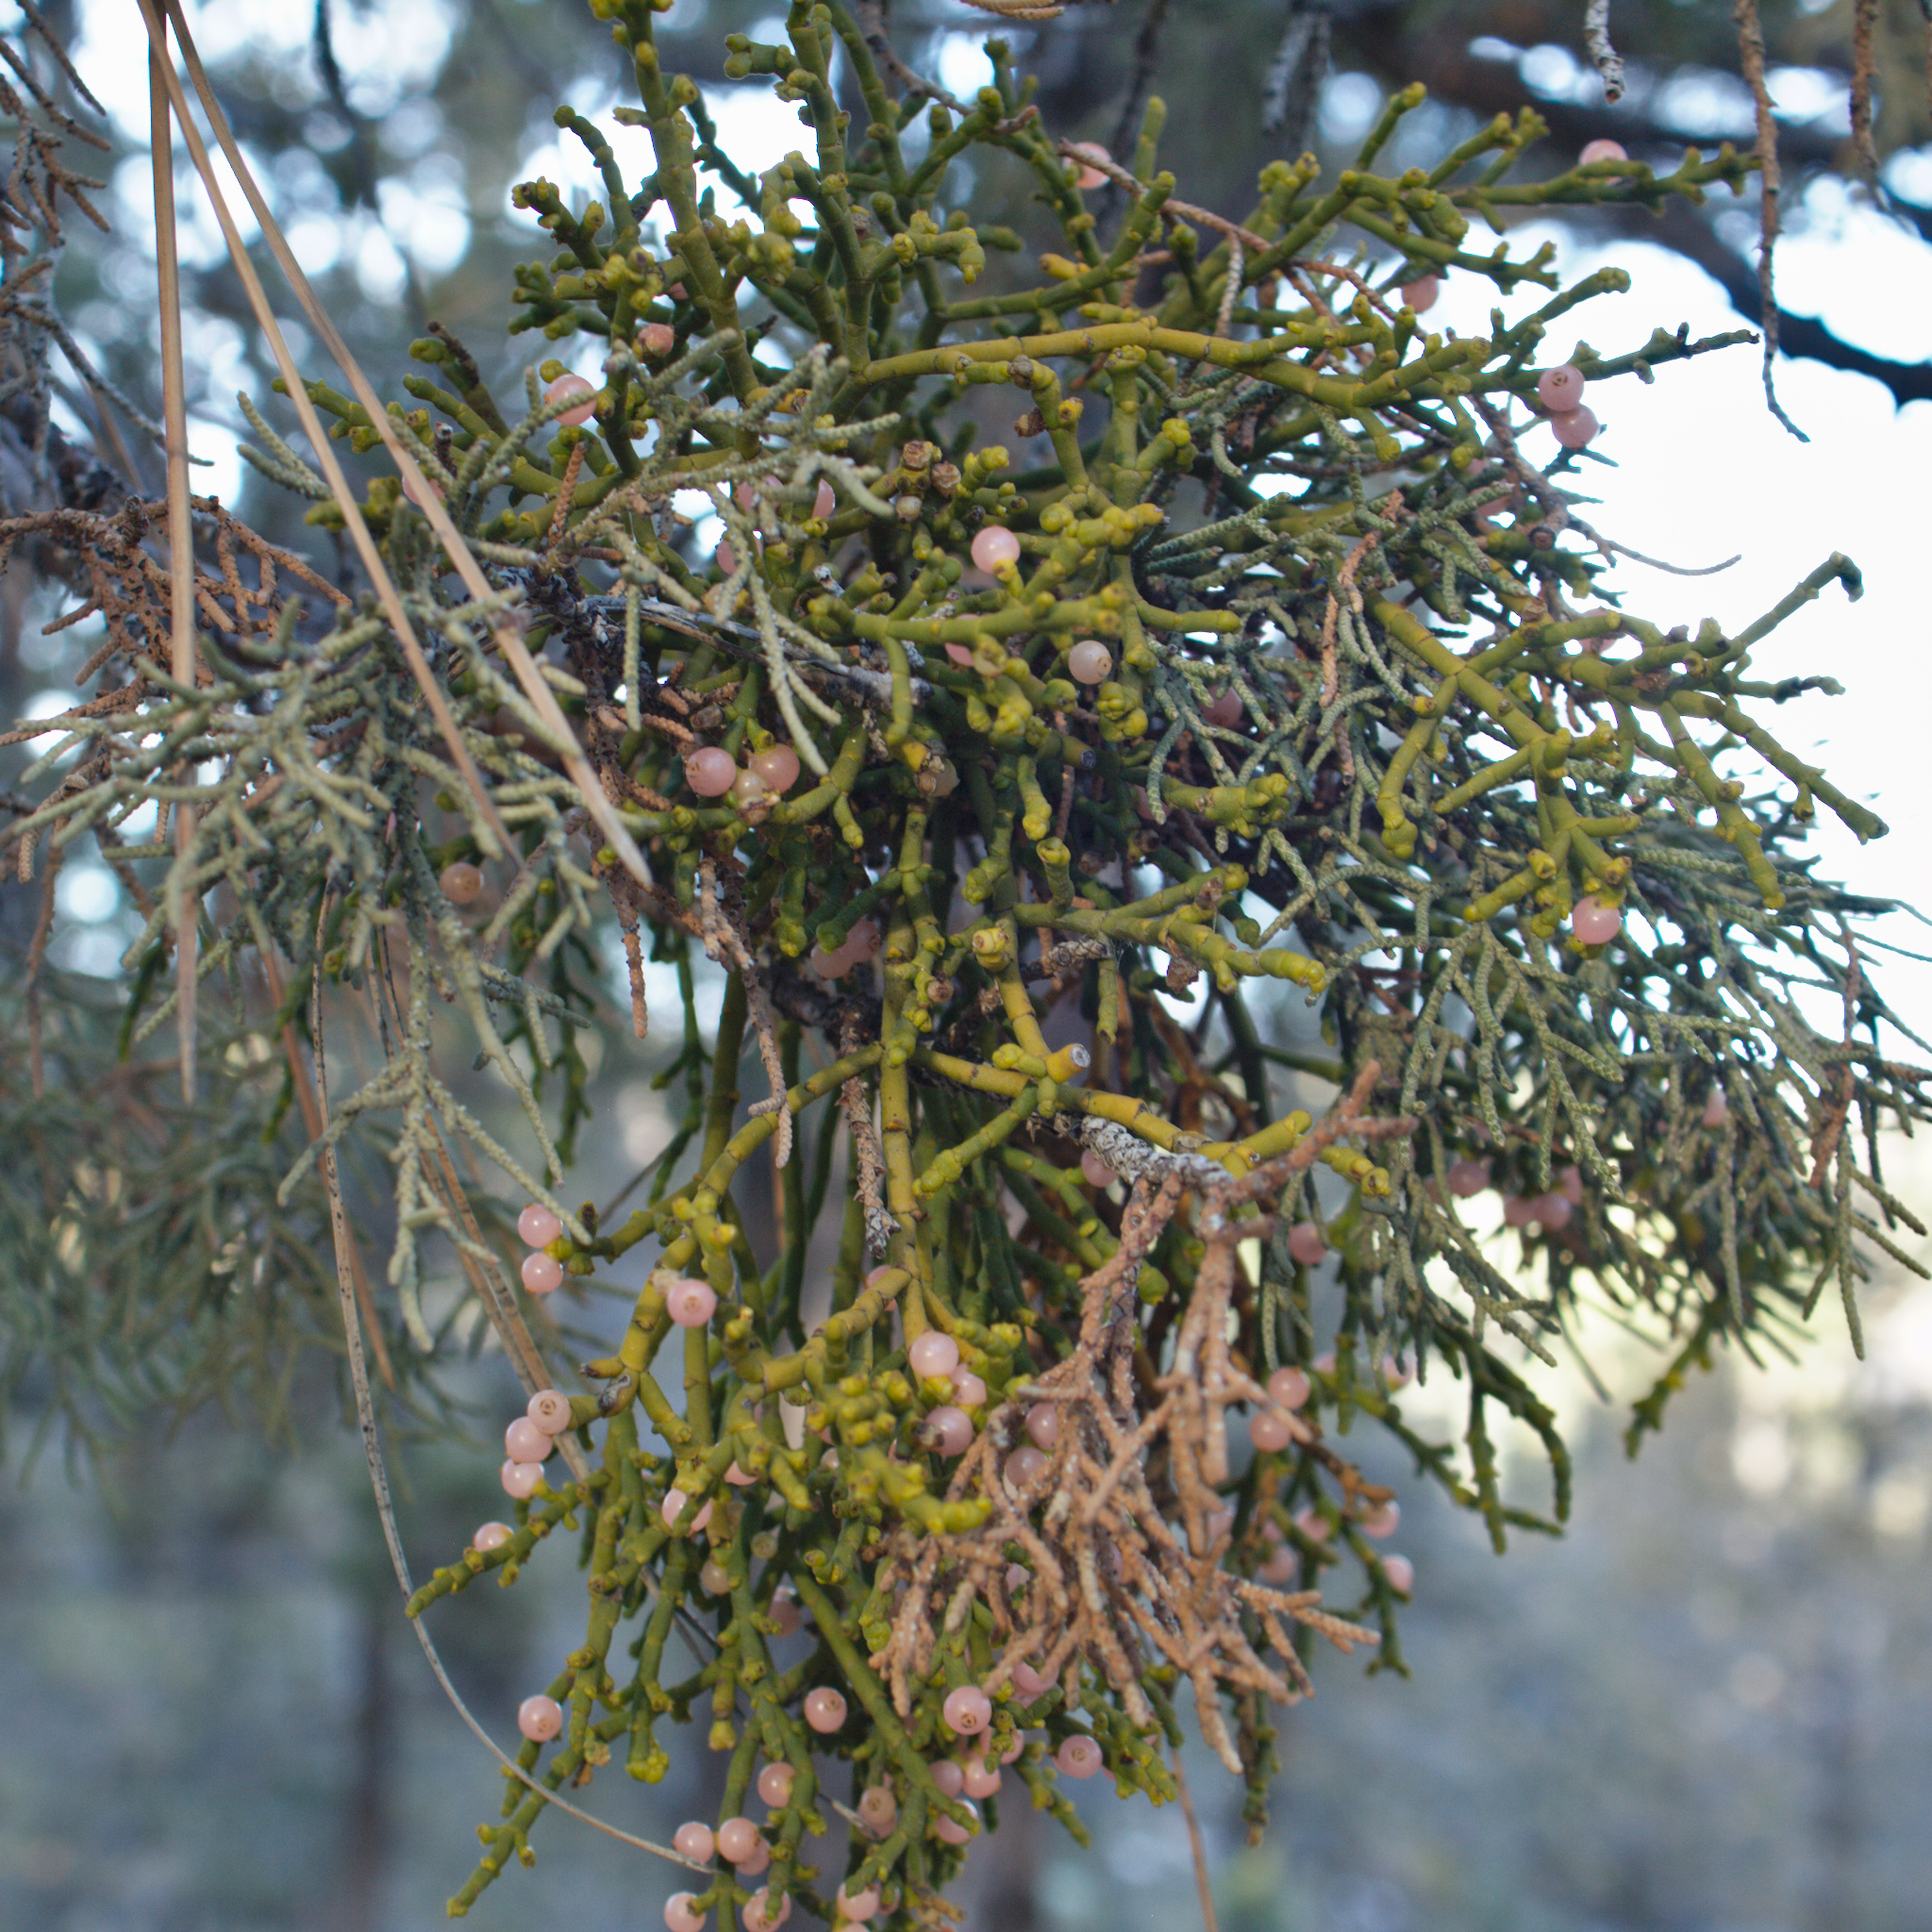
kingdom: Plantae
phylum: Tracheophyta
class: Magnoliopsida
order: Santalales
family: Viscaceae
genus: Phoradendron
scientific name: Phoradendron juniperinum
